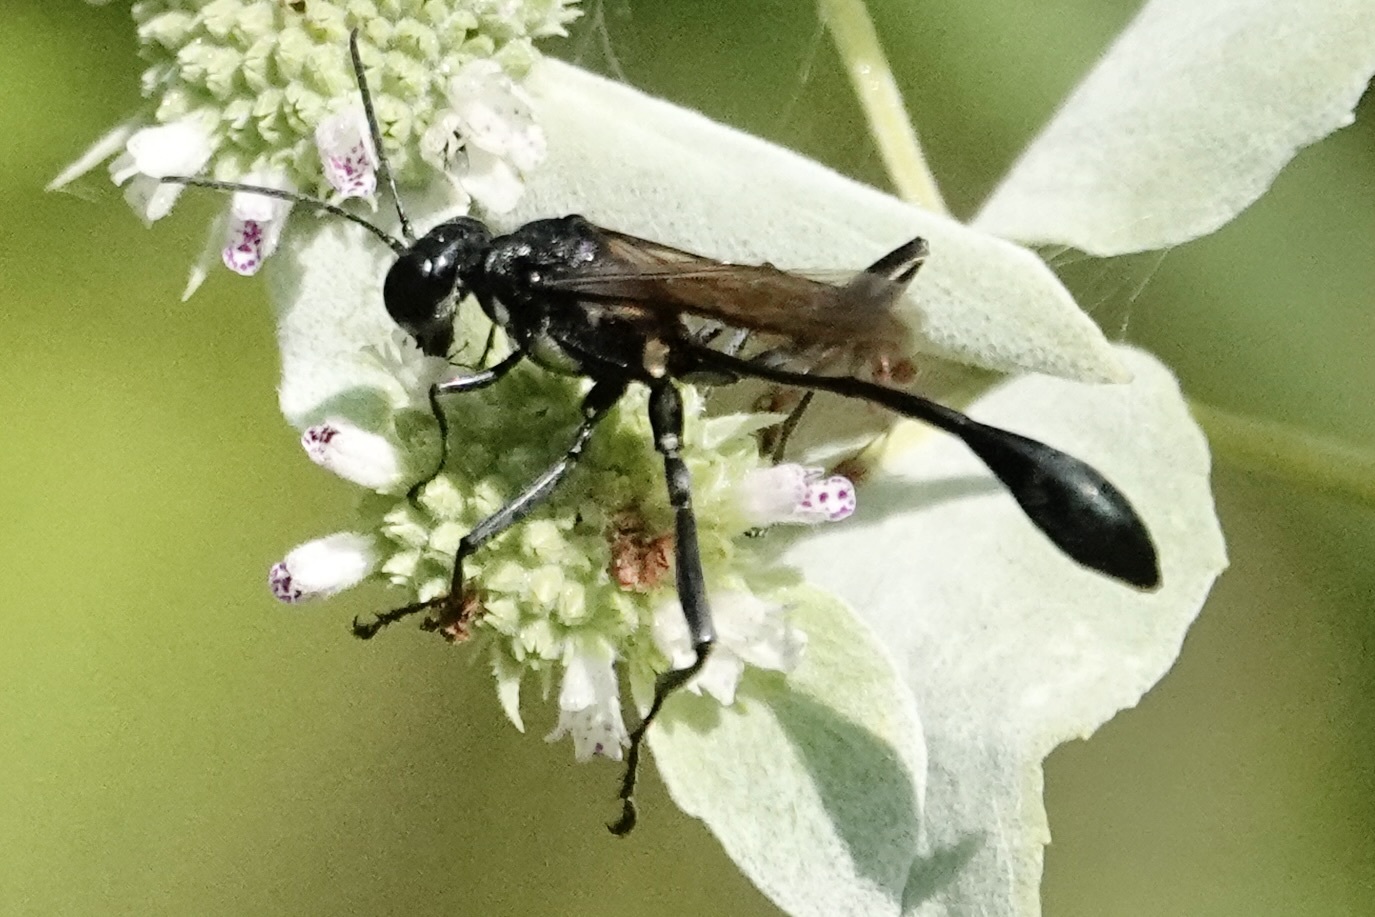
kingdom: Animalia
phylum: Arthropoda
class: Insecta
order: Hymenoptera
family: Sphecidae
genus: Eremnophila
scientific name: Eremnophila aureonotata
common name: Gold-marked thread-waisted wasp
